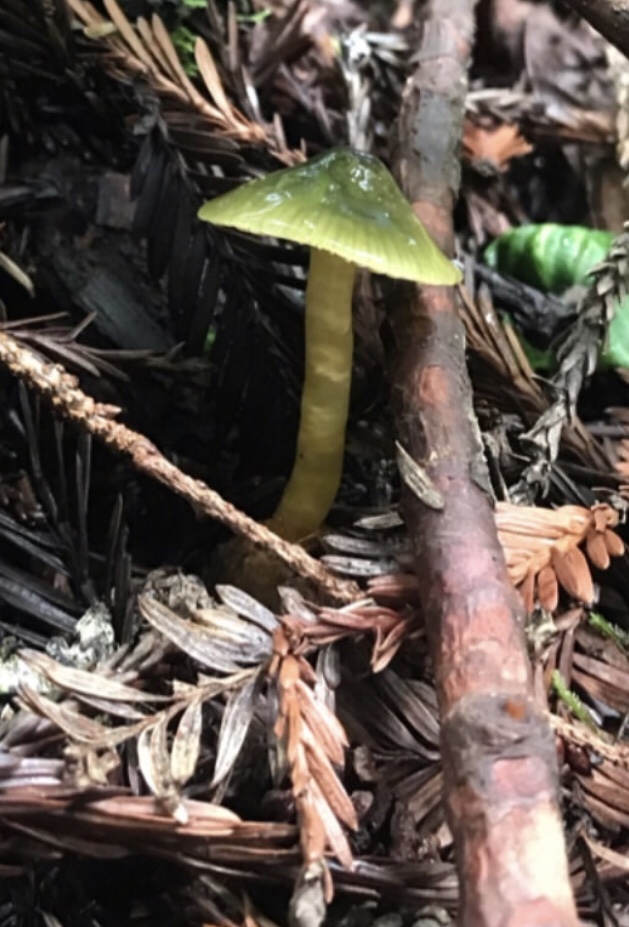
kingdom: Fungi
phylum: Basidiomycota
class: Agaricomycetes
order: Agaricales
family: Hygrophoraceae
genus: Gliophorus
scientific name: Gliophorus psittacinus
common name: Parrot wax-cap
